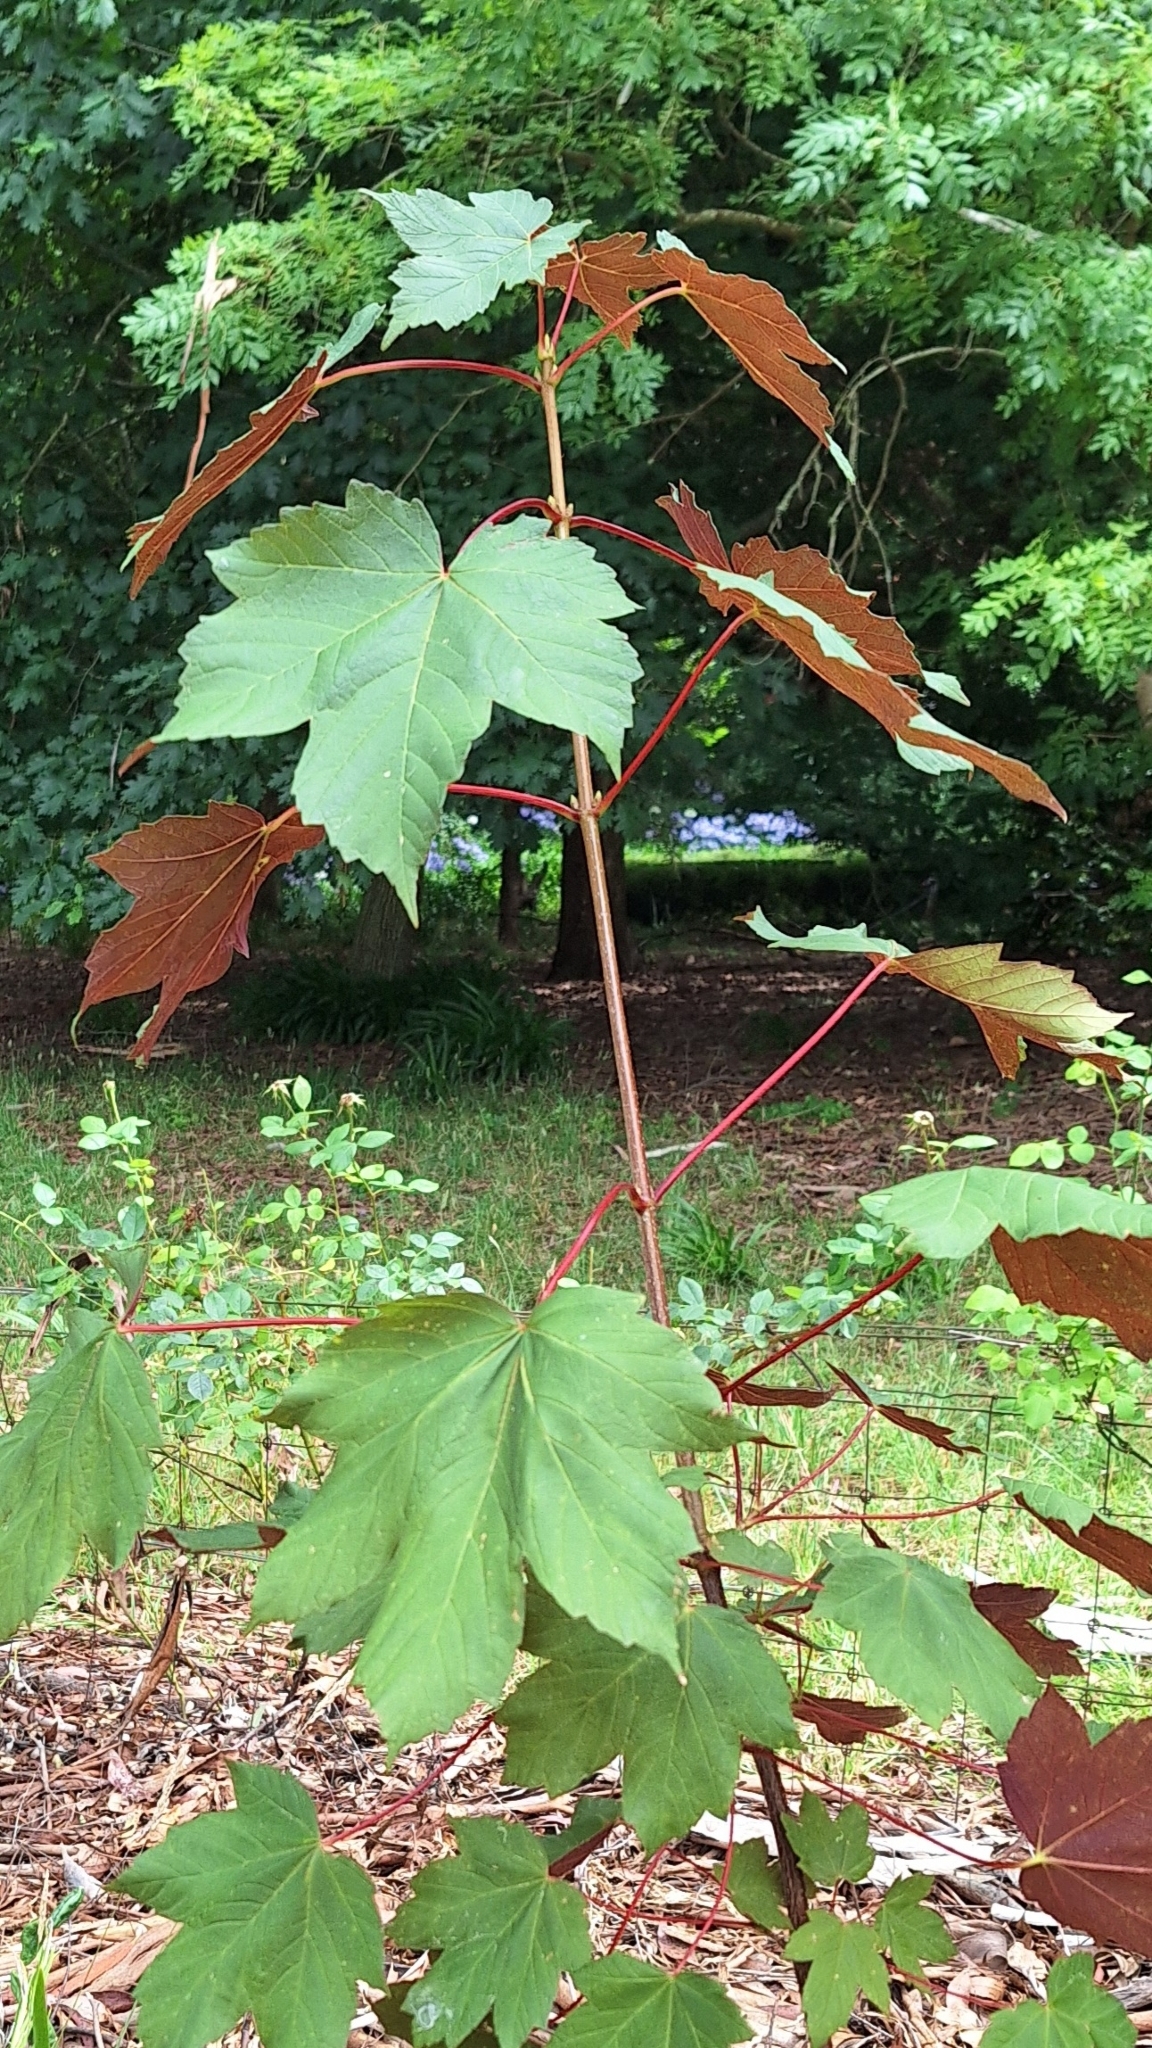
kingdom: Plantae
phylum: Tracheophyta
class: Magnoliopsida
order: Sapindales
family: Sapindaceae
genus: Acer
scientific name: Acer pseudoplatanus
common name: Sycamore
